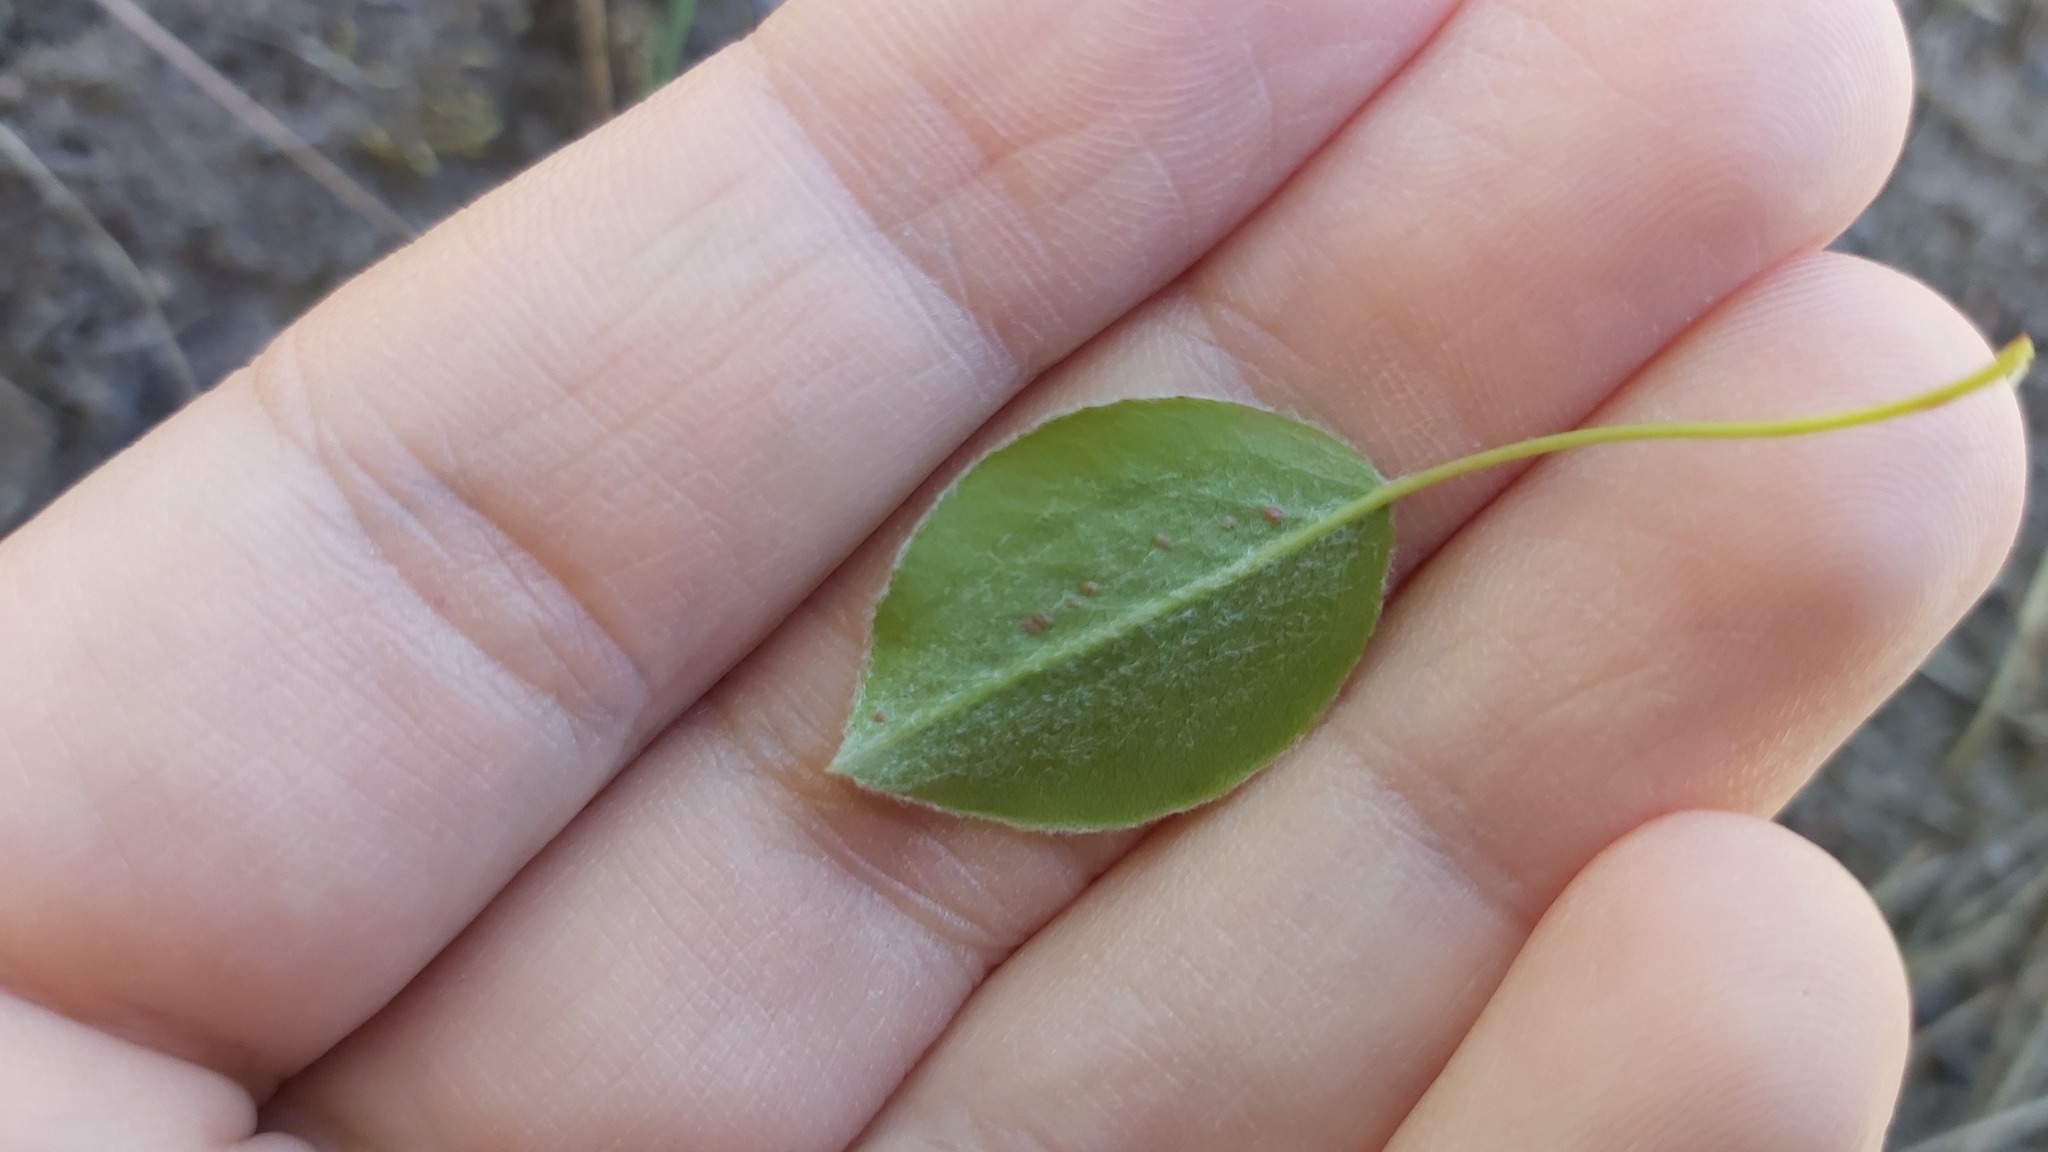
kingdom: Plantae
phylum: Tracheophyta
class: Magnoliopsida
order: Rosales
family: Rosaceae
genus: Pyrus
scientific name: Pyrus communis
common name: Pear
